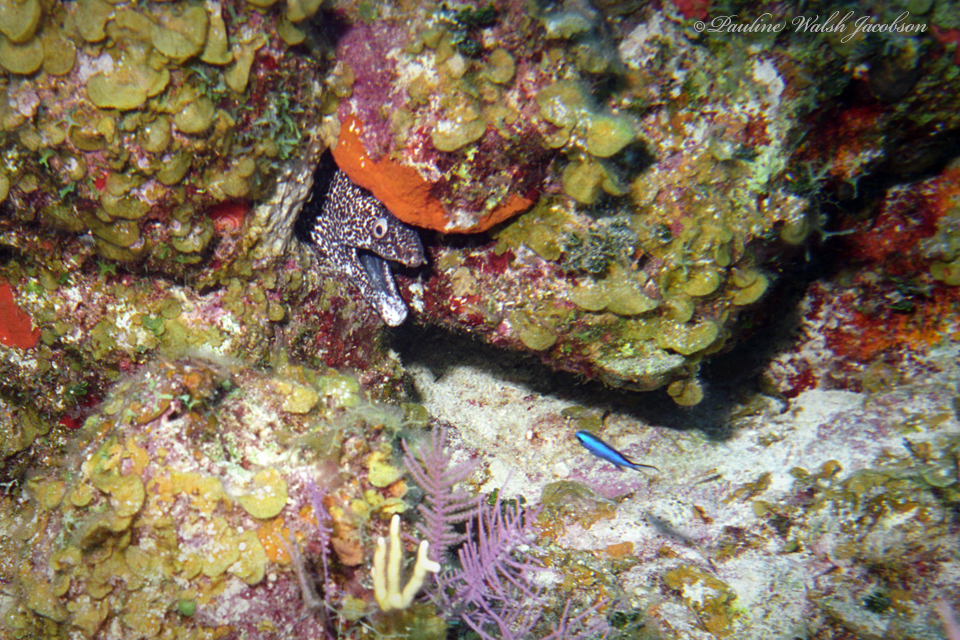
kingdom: Animalia
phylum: Chordata
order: Anguilliformes
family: Muraenidae
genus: Gymnothorax
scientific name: Gymnothorax moringa
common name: Spotted moray
